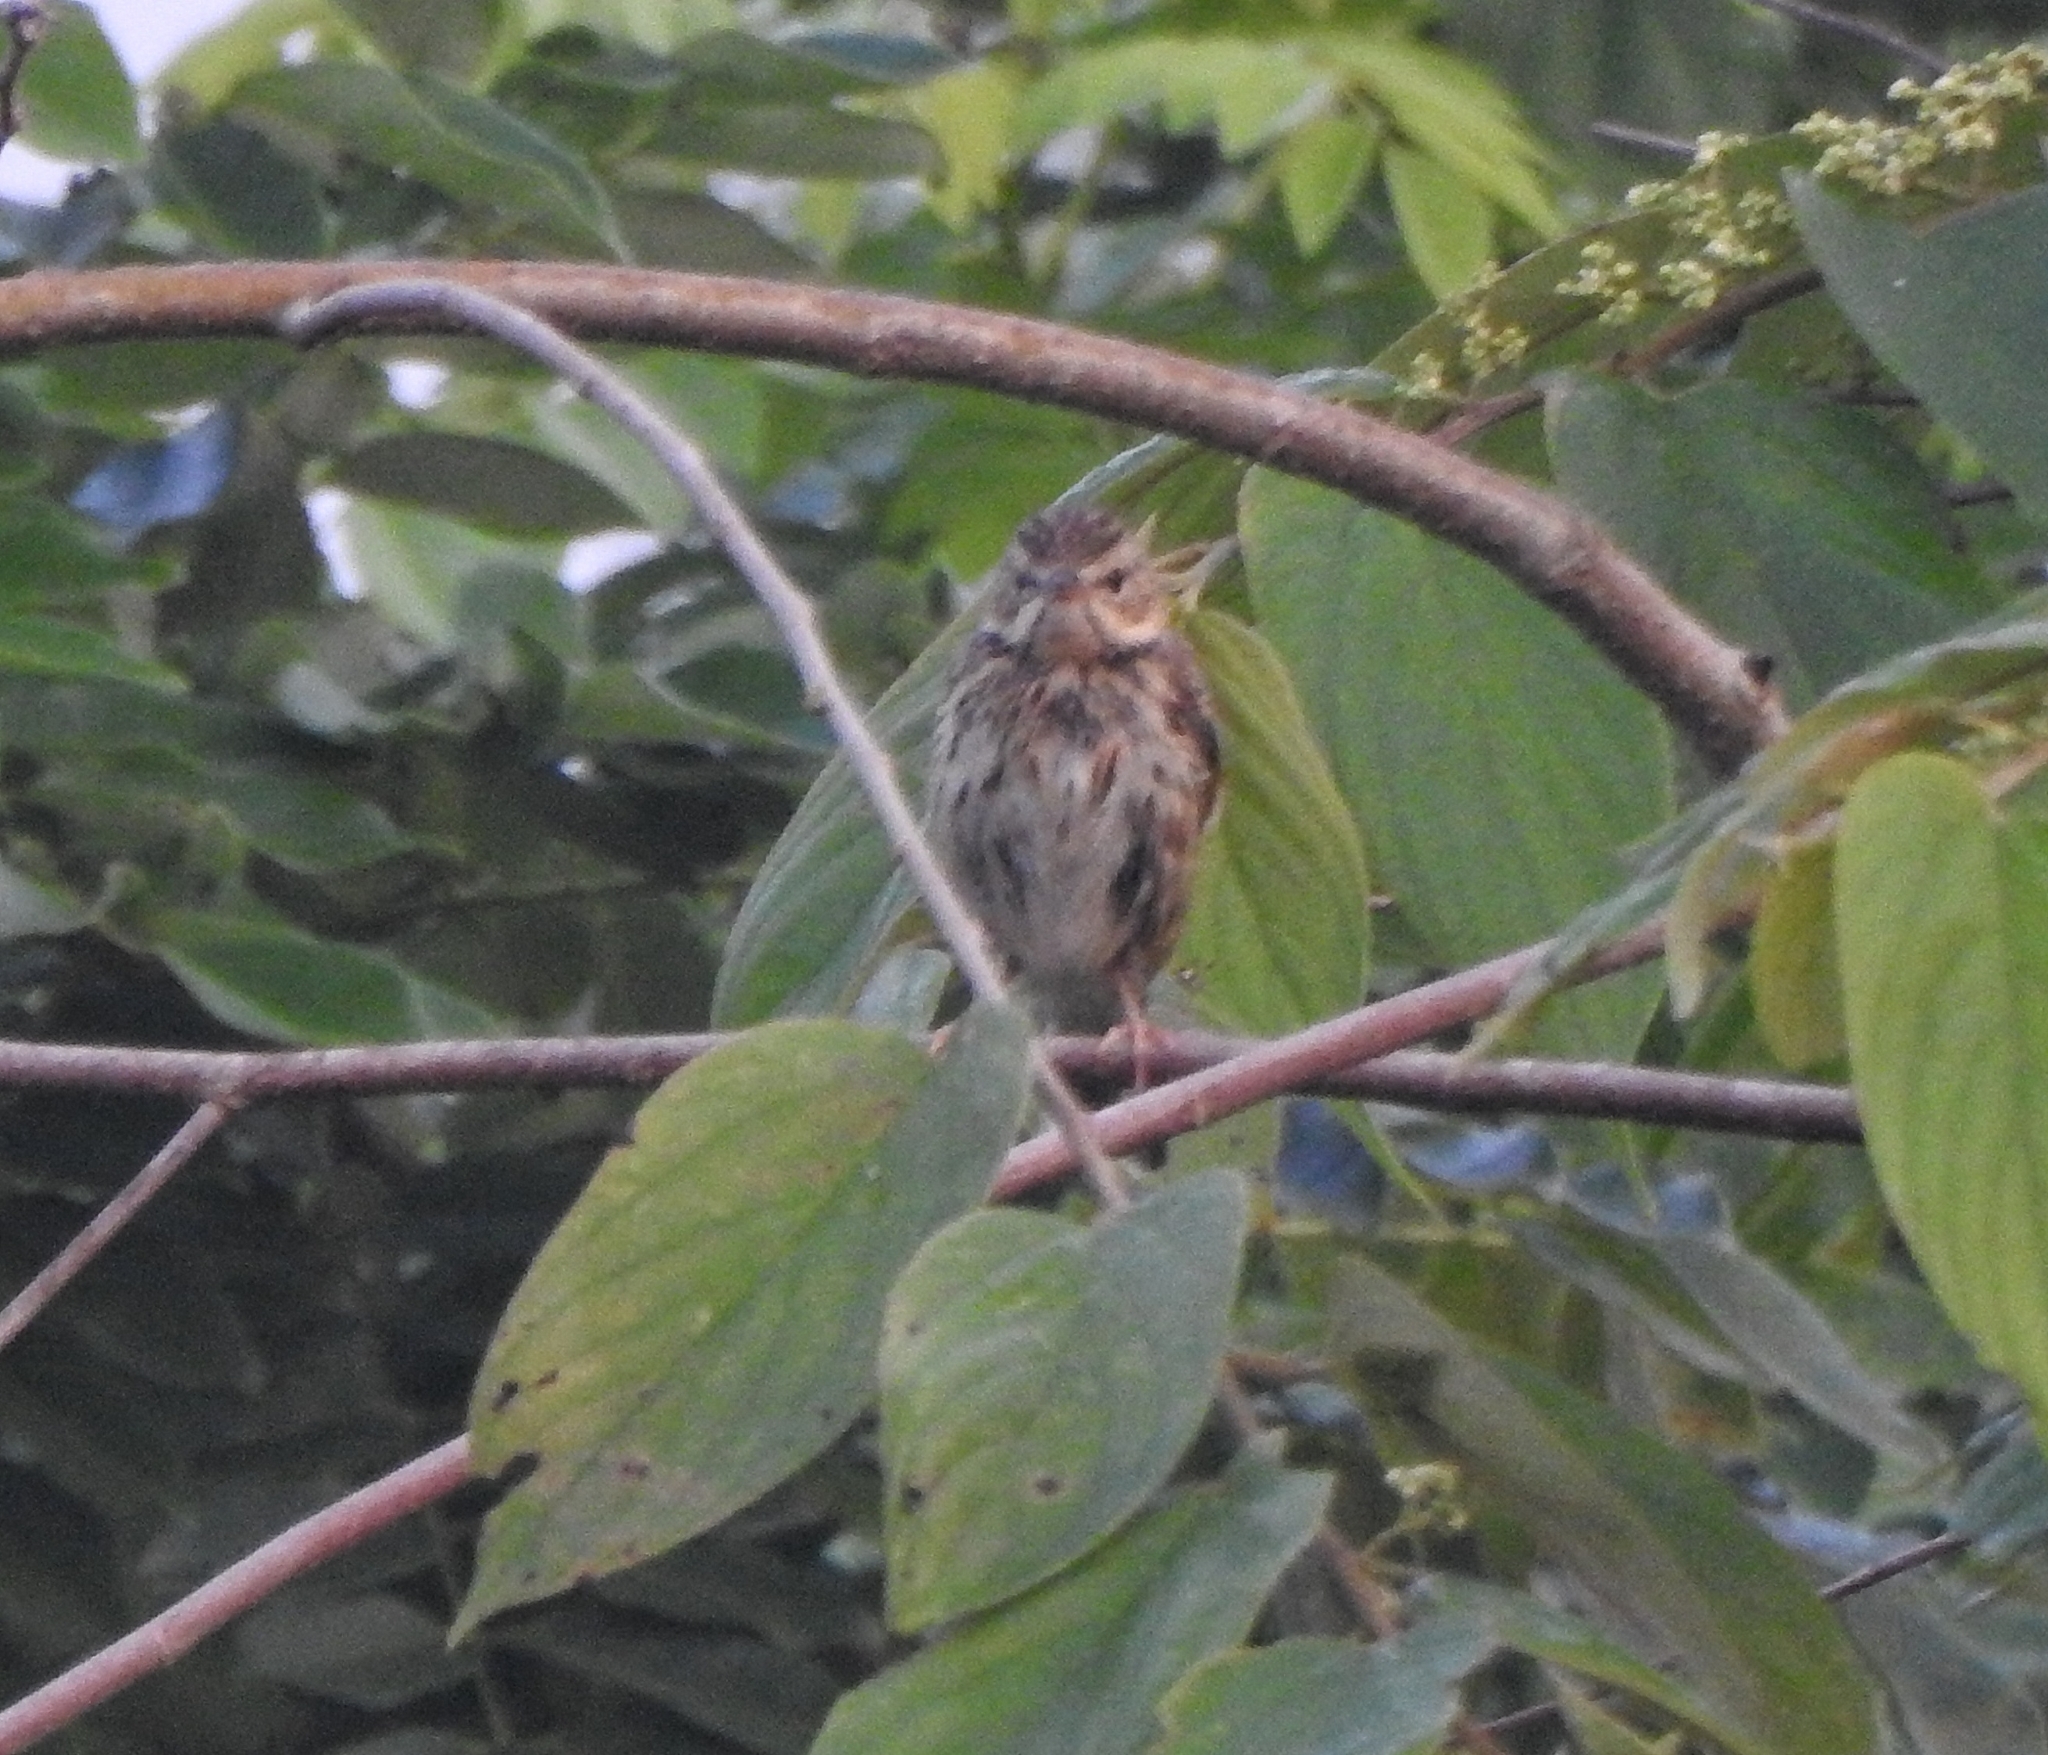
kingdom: Animalia
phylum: Chordata
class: Aves
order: Passeriformes
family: Motacillidae
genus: Anthus
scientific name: Anthus trivialis
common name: Tree pipit
